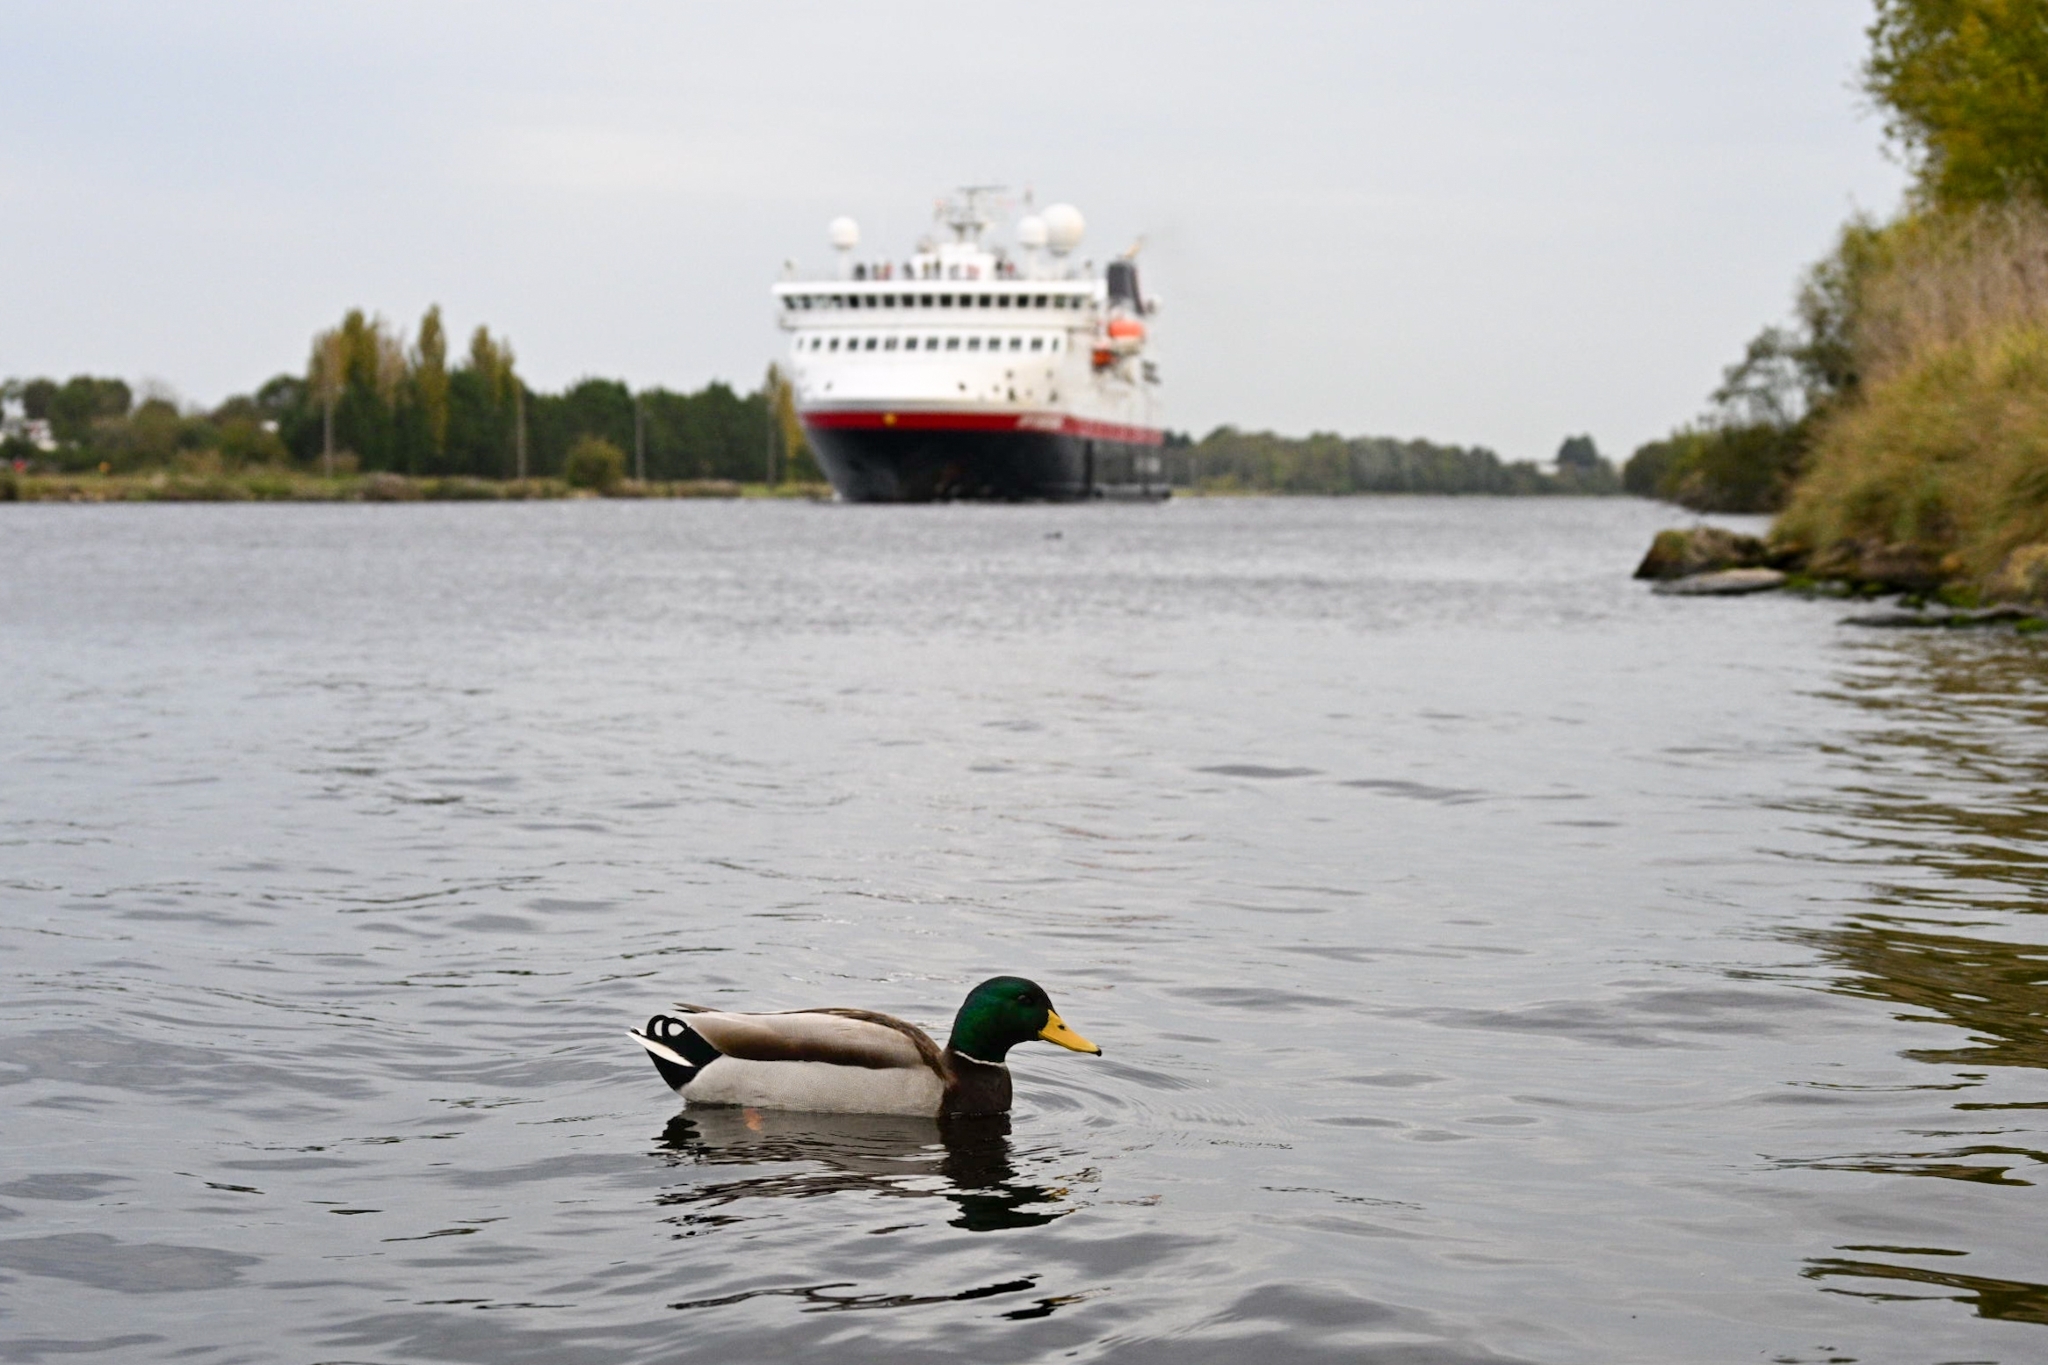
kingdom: Animalia
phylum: Chordata
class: Aves
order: Anseriformes
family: Anatidae
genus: Anas
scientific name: Anas platyrhynchos
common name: Mallard
